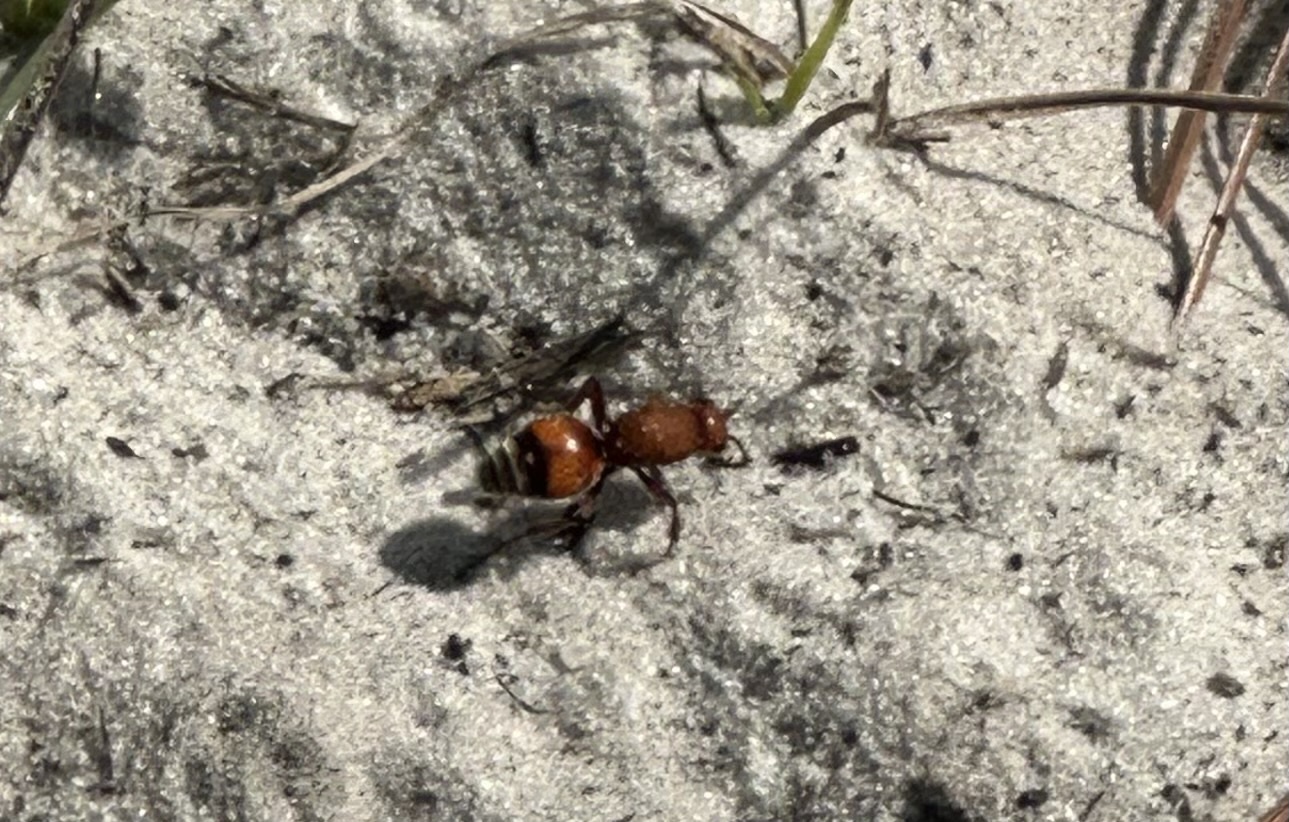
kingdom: Animalia
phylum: Arthropoda
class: Insecta
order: Hymenoptera
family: Mutillidae
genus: Dasymutilla
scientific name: Dasymutilla
